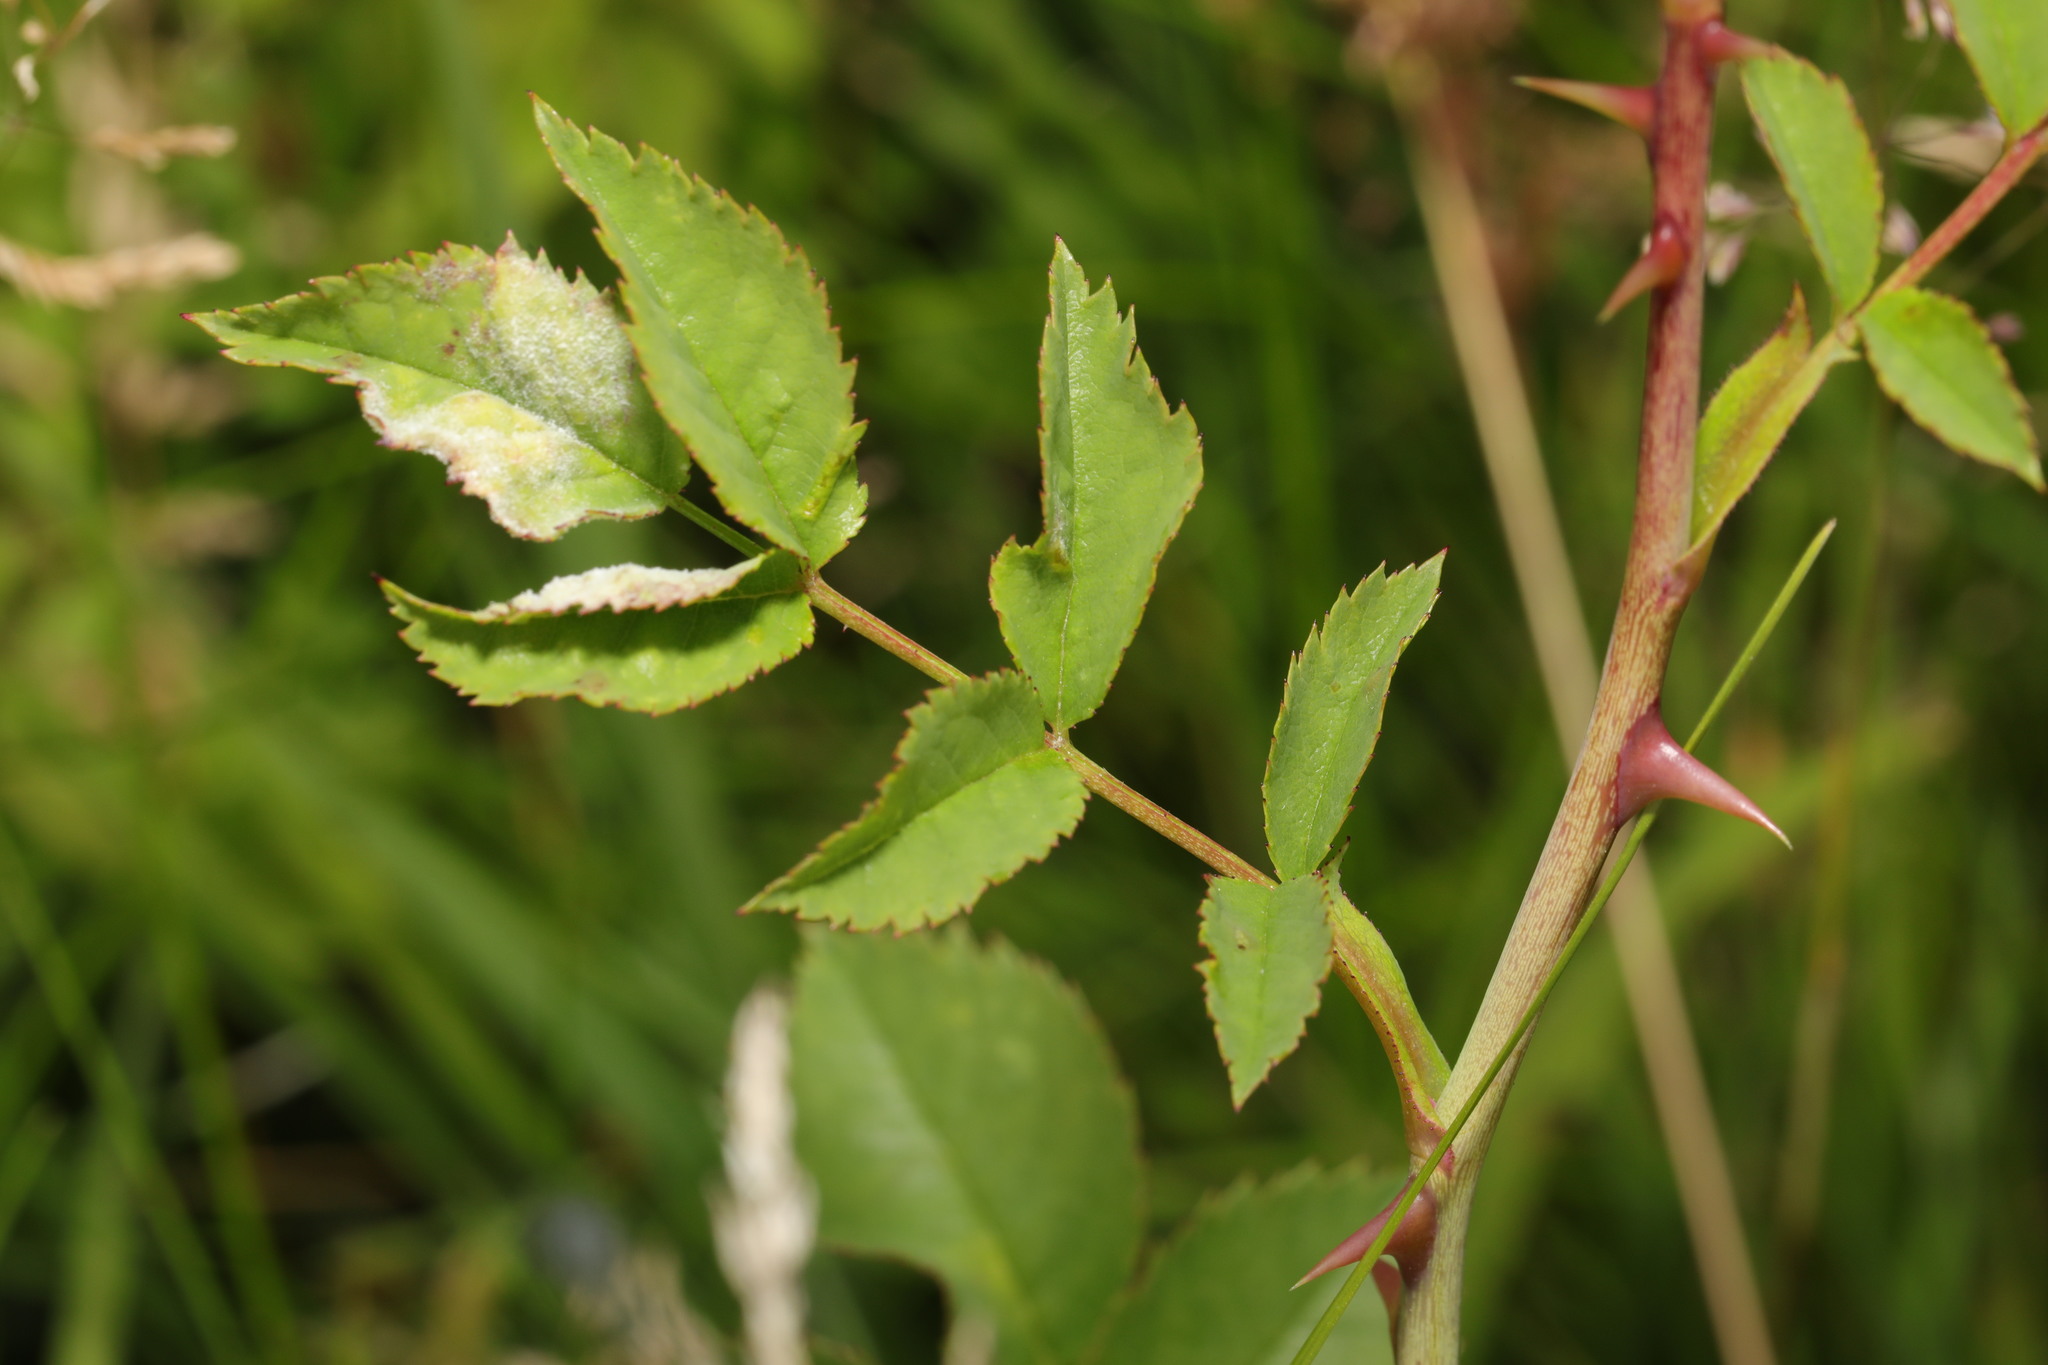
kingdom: Fungi
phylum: Ascomycota
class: Leotiomycetes
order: Helotiales
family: Erysiphaceae
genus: Podosphaera
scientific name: Podosphaera pannosa
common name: Rose mildew
